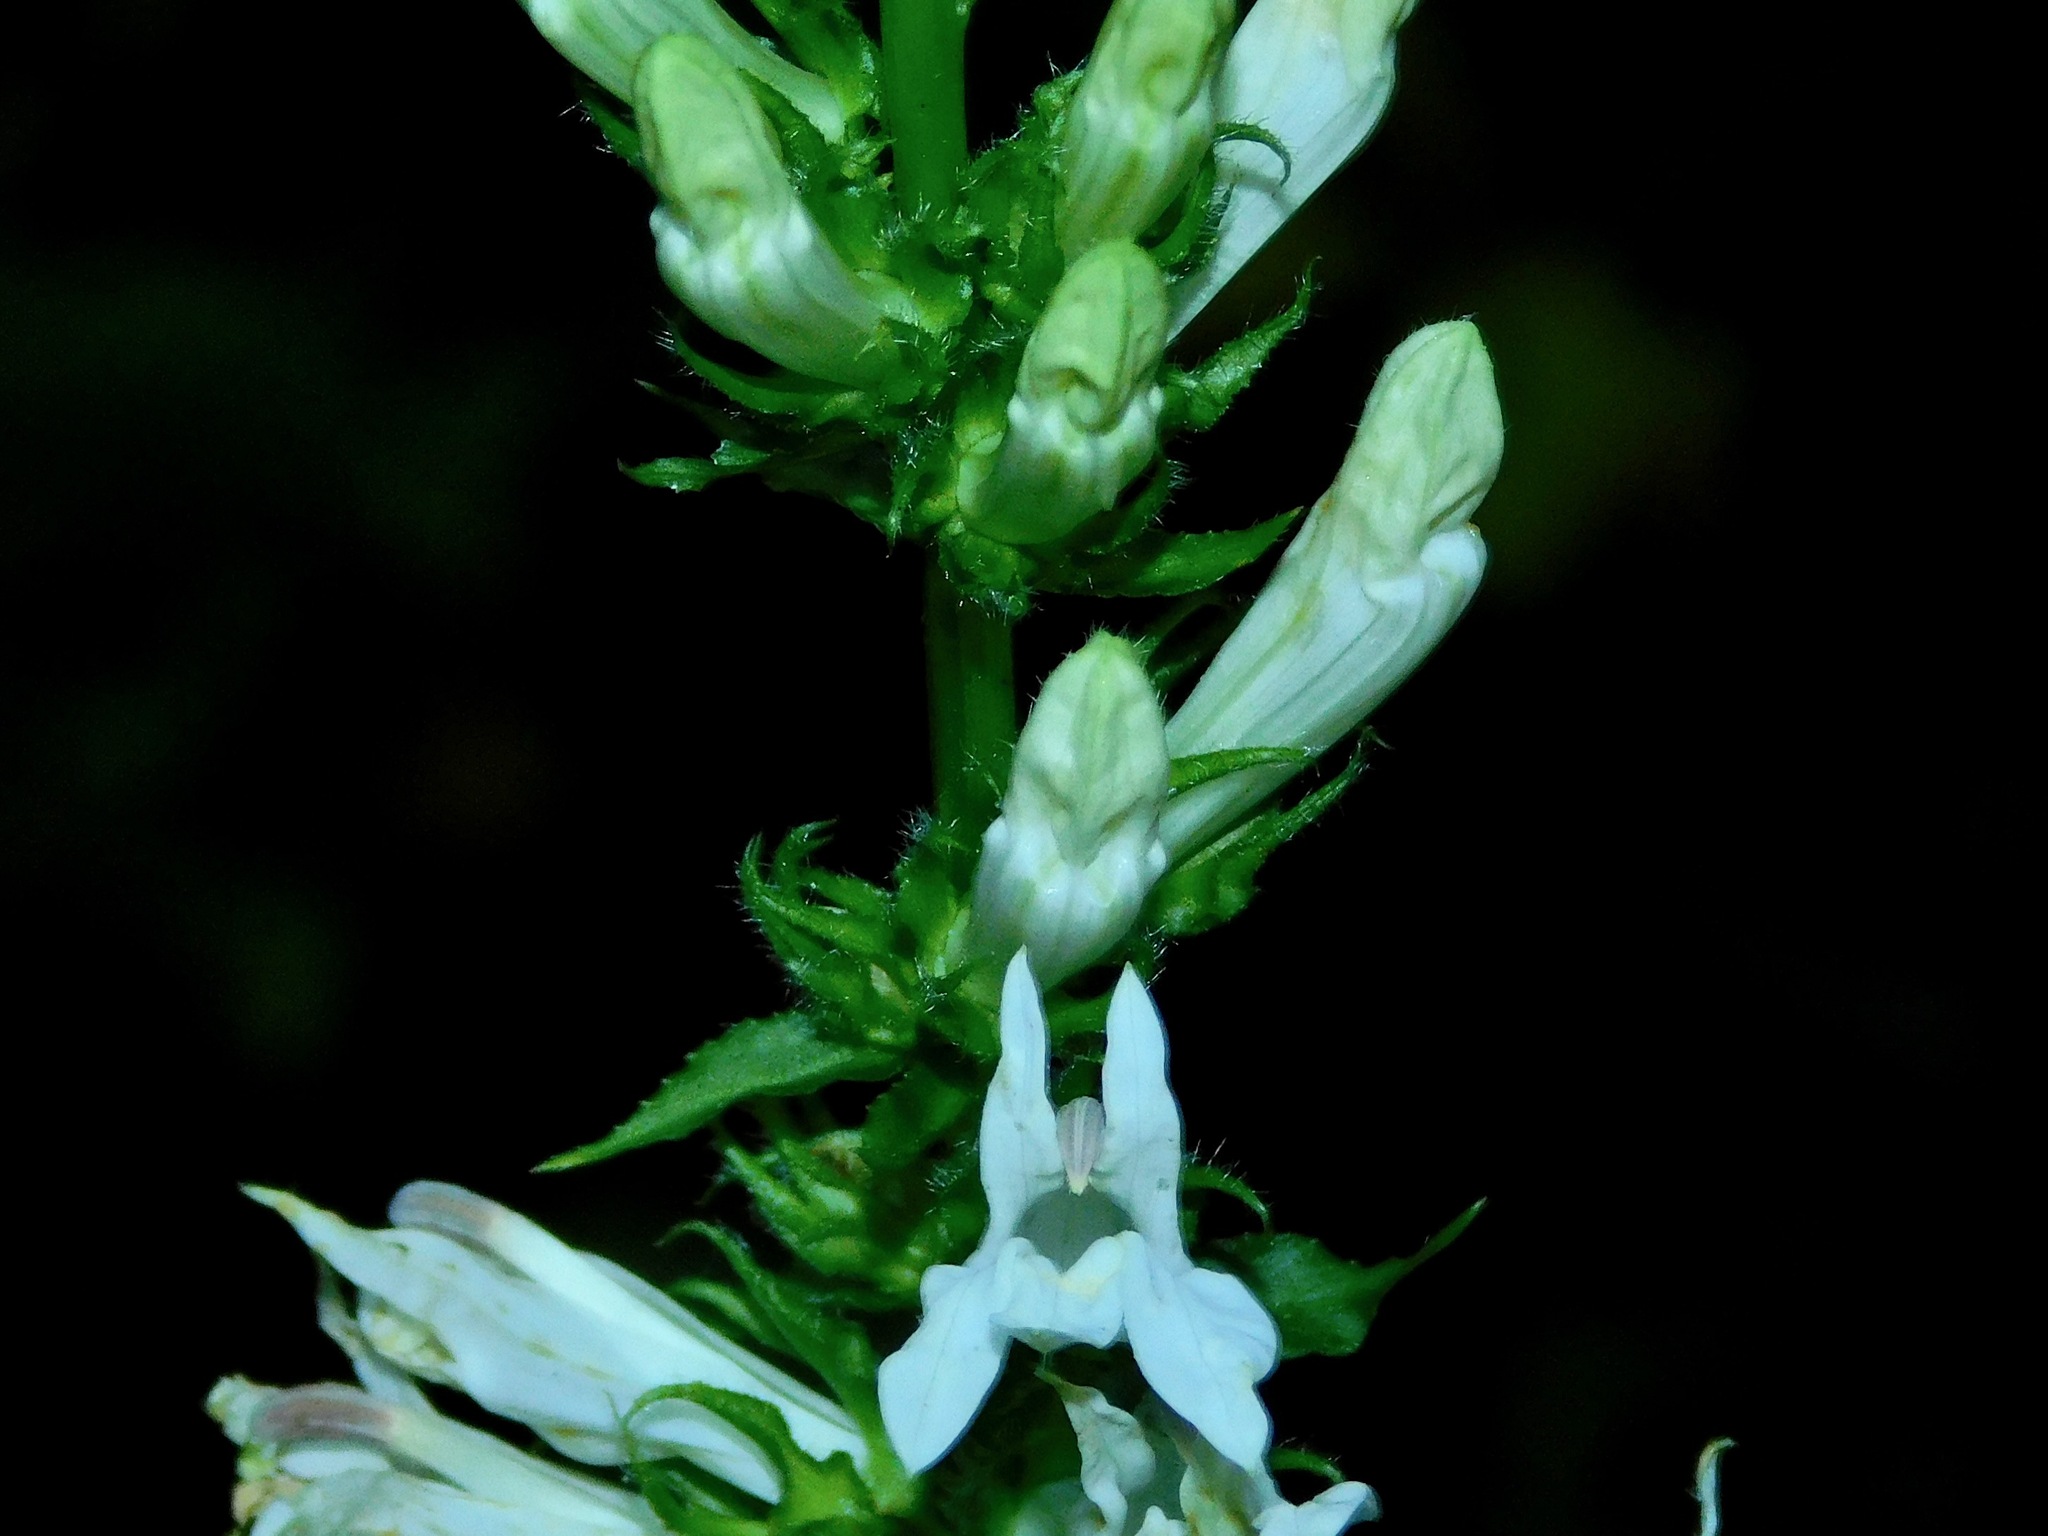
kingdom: Plantae
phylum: Tracheophyta
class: Magnoliopsida
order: Asterales
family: Campanulaceae
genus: Lobelia
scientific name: Lobelia siphilitica
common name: Great lobelia
